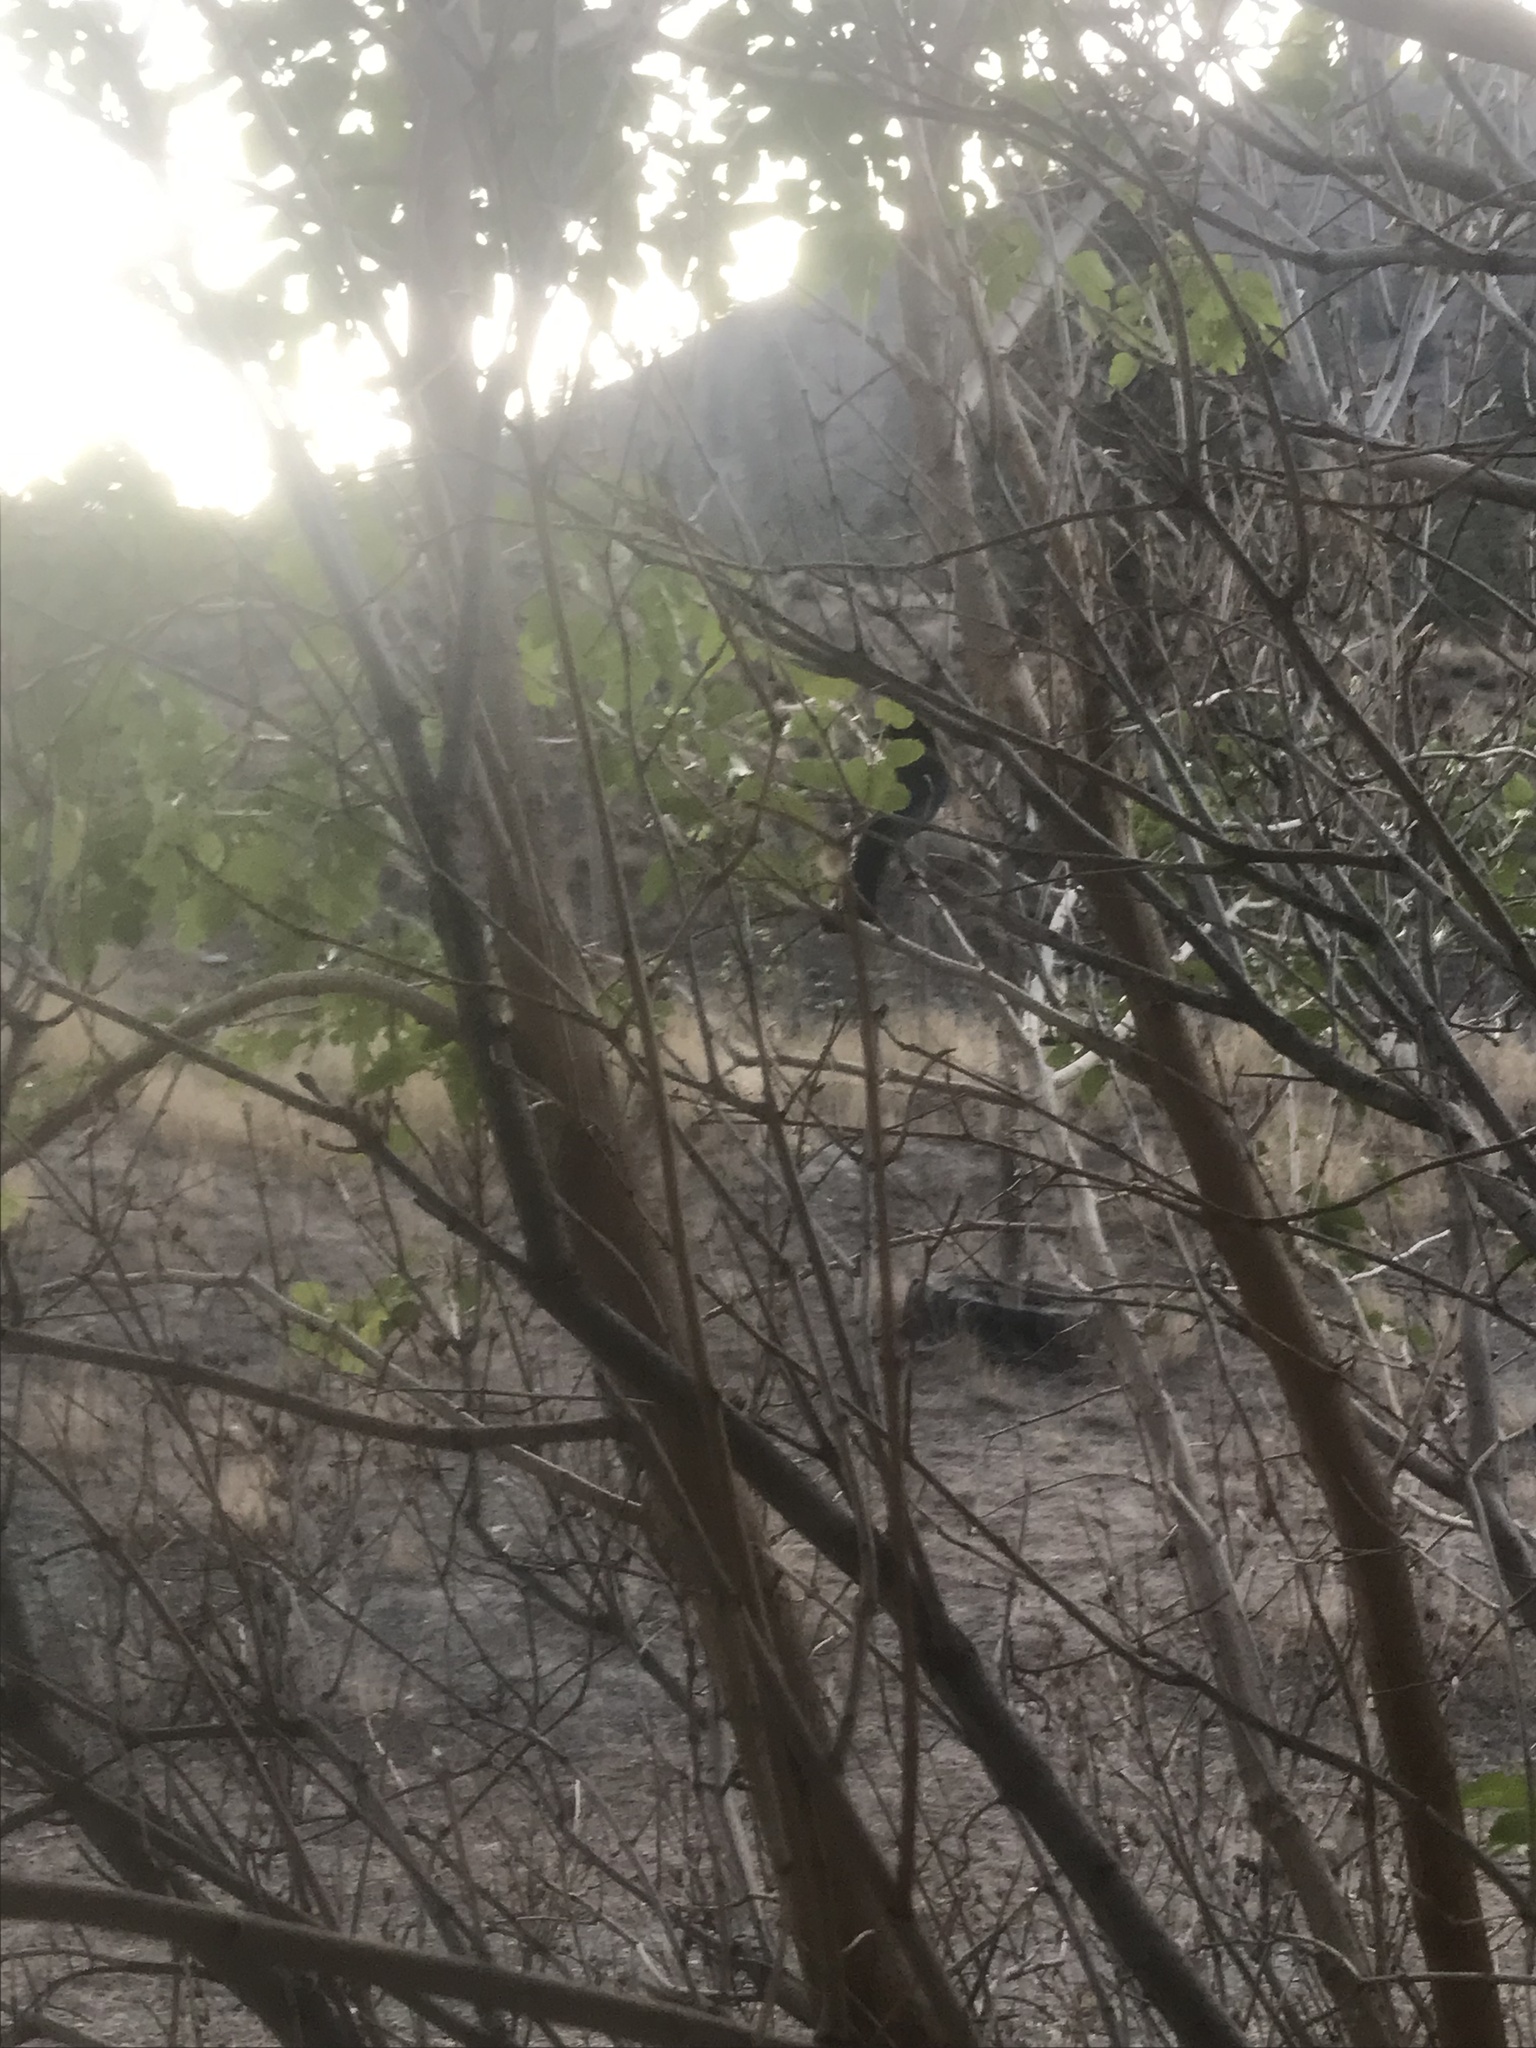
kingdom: Animalia
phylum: Chordata
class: Aves
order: Passeriformes
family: Corvidae
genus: Cyanocitta
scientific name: Cyanocitta stelleri
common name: Steller's jay
